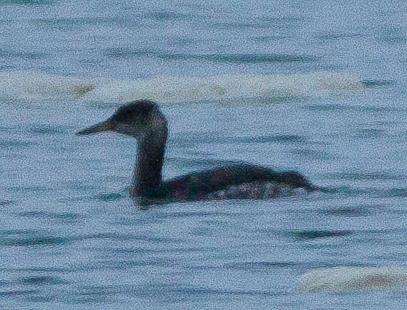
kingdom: Animalia
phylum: Chordata
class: Aves
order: Podicipediformes
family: Podicipedidae
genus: Podiceps
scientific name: Podiceps grisegena
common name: Red-necked grebe
